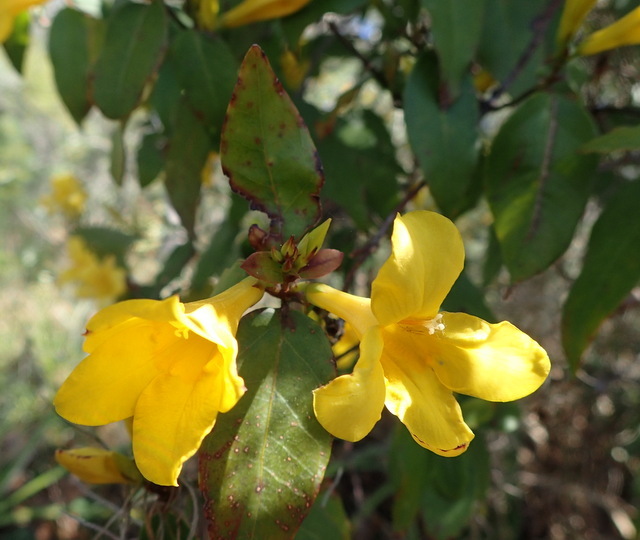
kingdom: Plantae
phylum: Tracheophyta
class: Magnoliopsida
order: Gentianales
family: Gelsemiaceae
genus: Gelsemium
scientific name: Gelsemium rankinii
